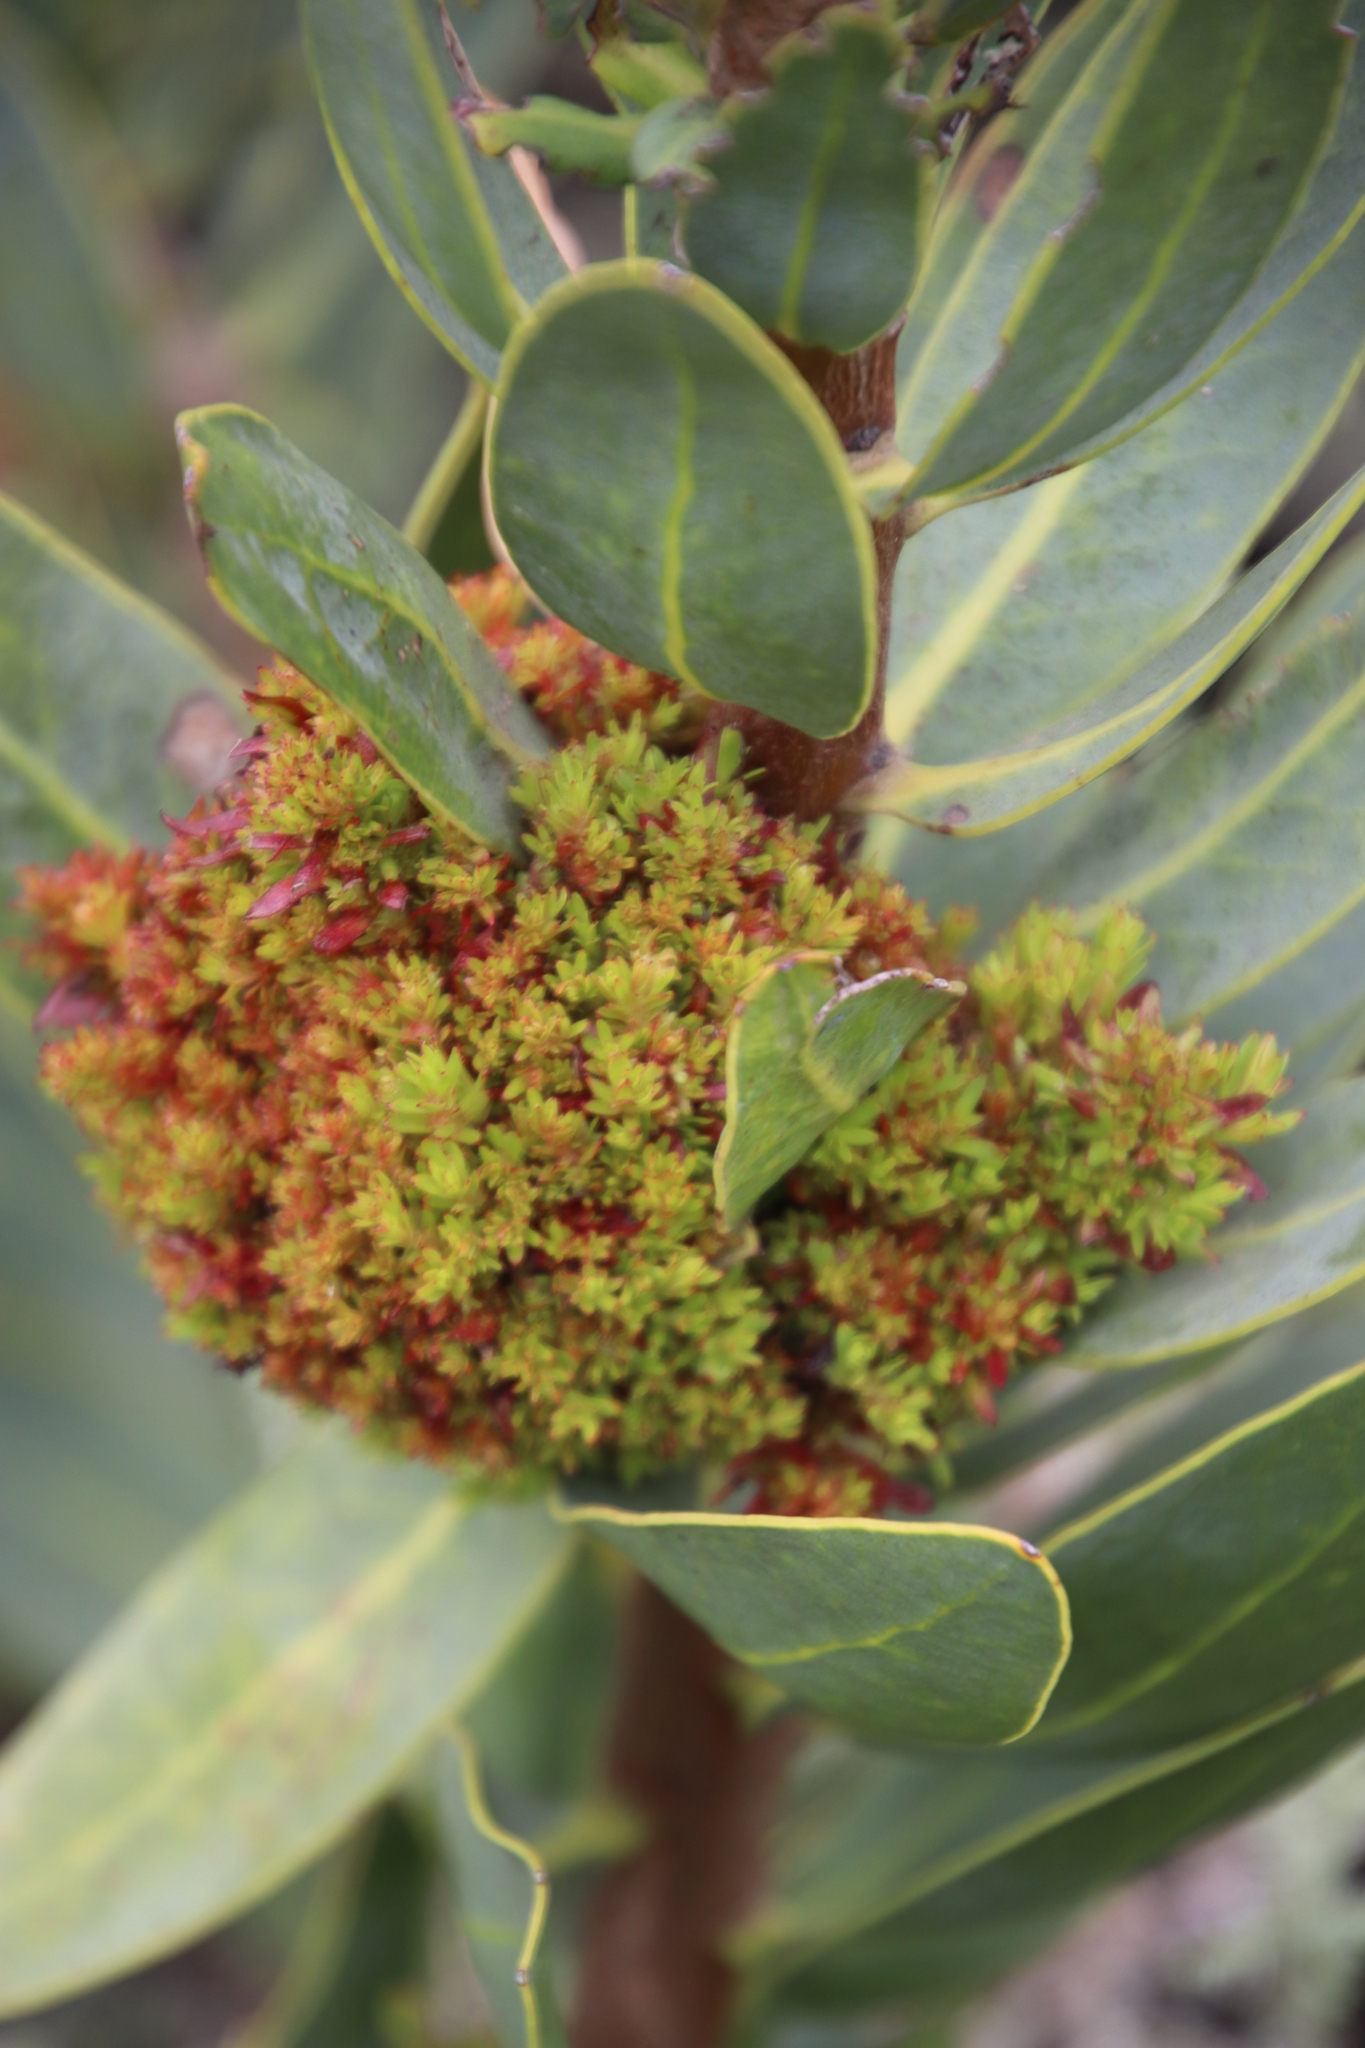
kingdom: Bacteria
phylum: Firmicutes
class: Bacilli
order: Acholeplasmatales
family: Acholeplasmataceae
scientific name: Acholeplasmataceae
